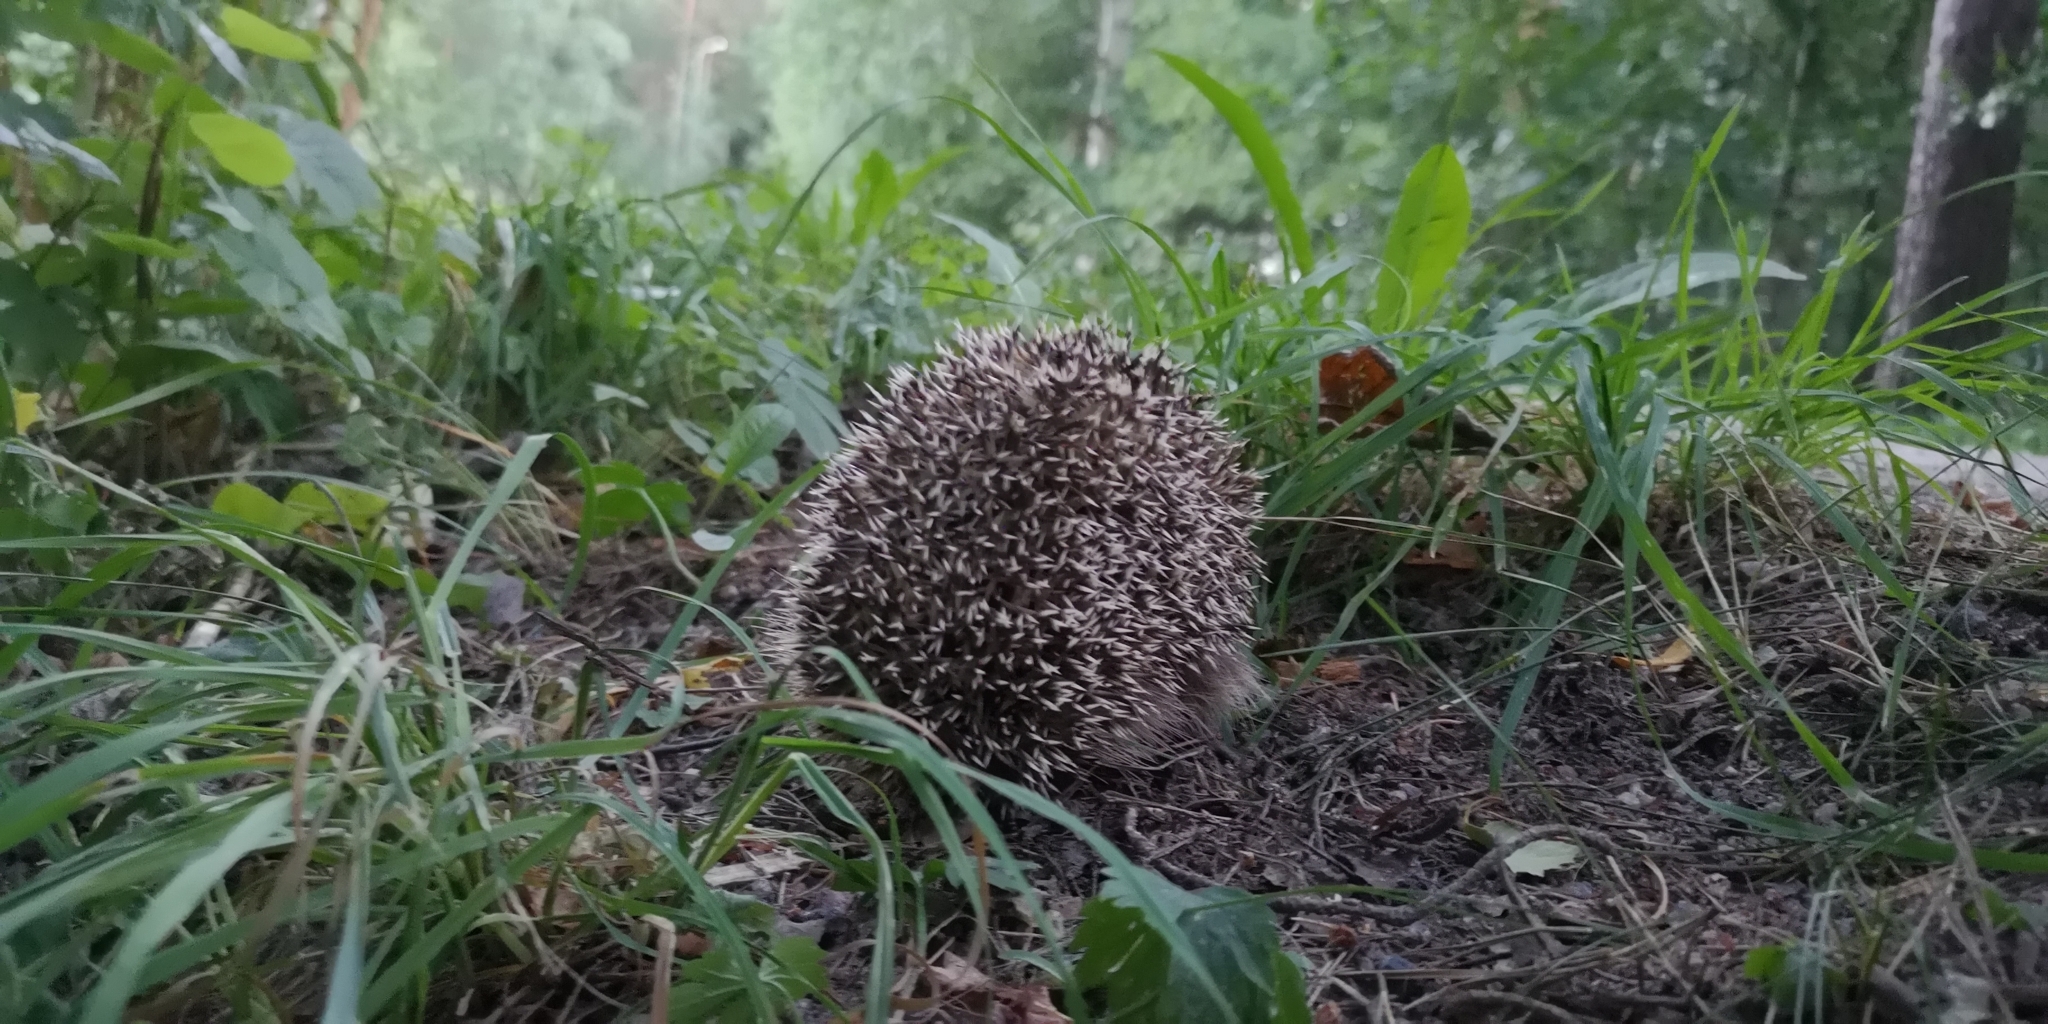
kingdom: Animalia
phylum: Chordata
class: Mammalia
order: Erinaceomorpha
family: Erinaceidae
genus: Erinaceus
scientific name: Erinaceus europaeus
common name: West european hedgehog
